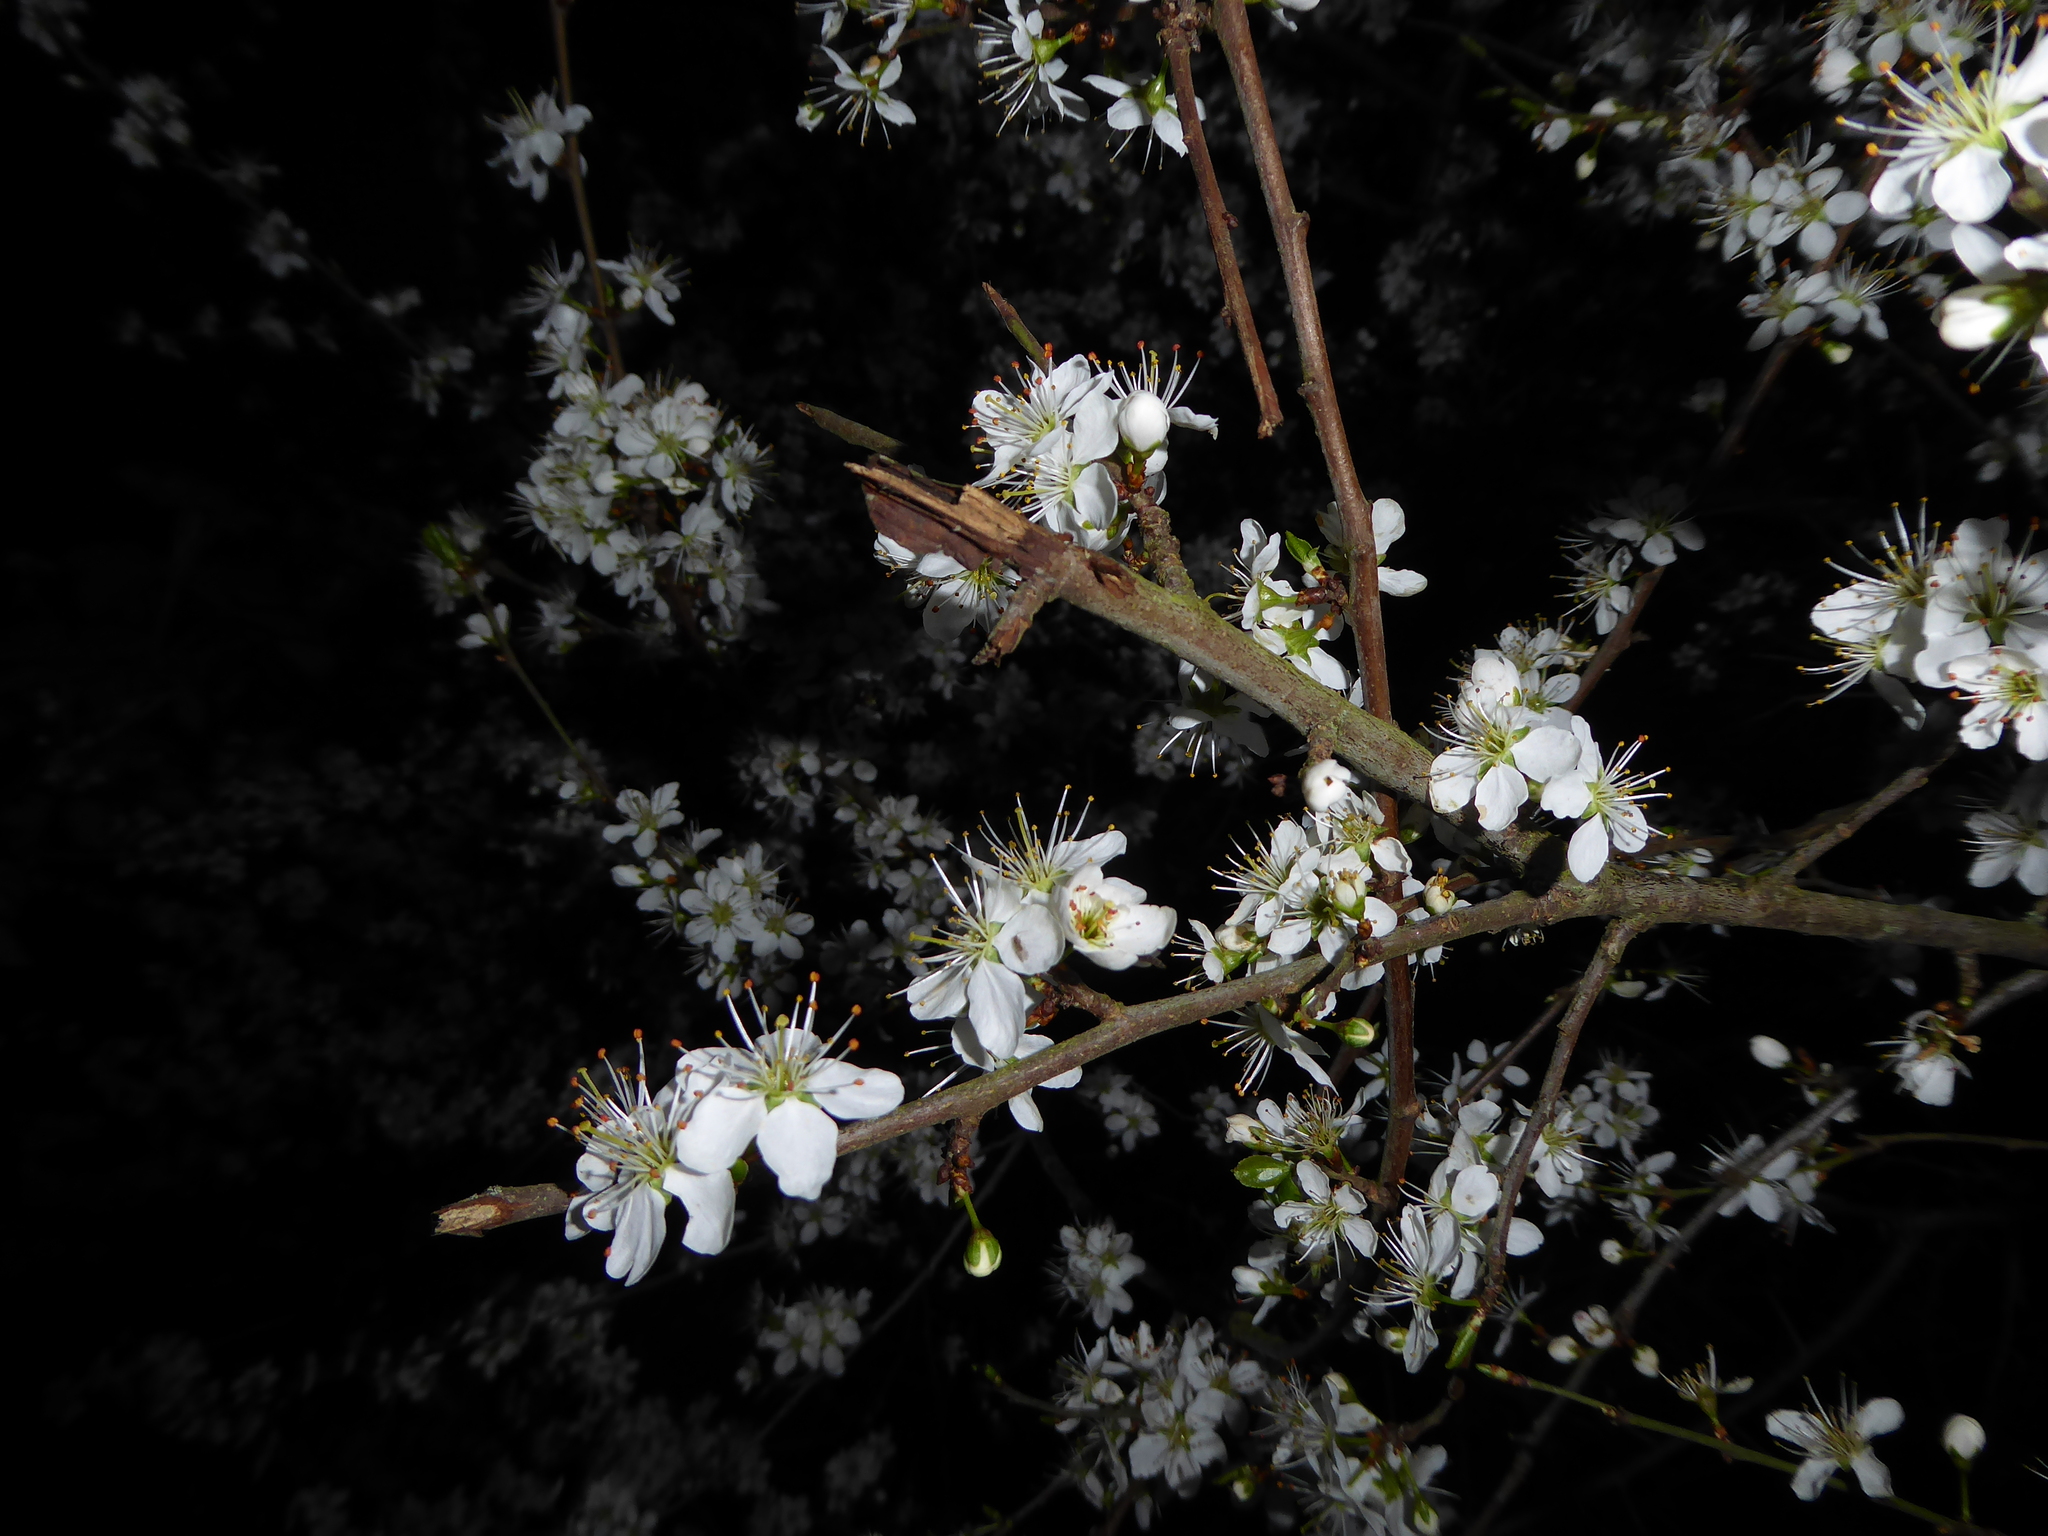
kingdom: Plantae
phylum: Tracheophyta
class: Magnoliopsida
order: Rosales
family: Rosaceae
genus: Prunus
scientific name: Prunus spinosa
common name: Blackthorn
